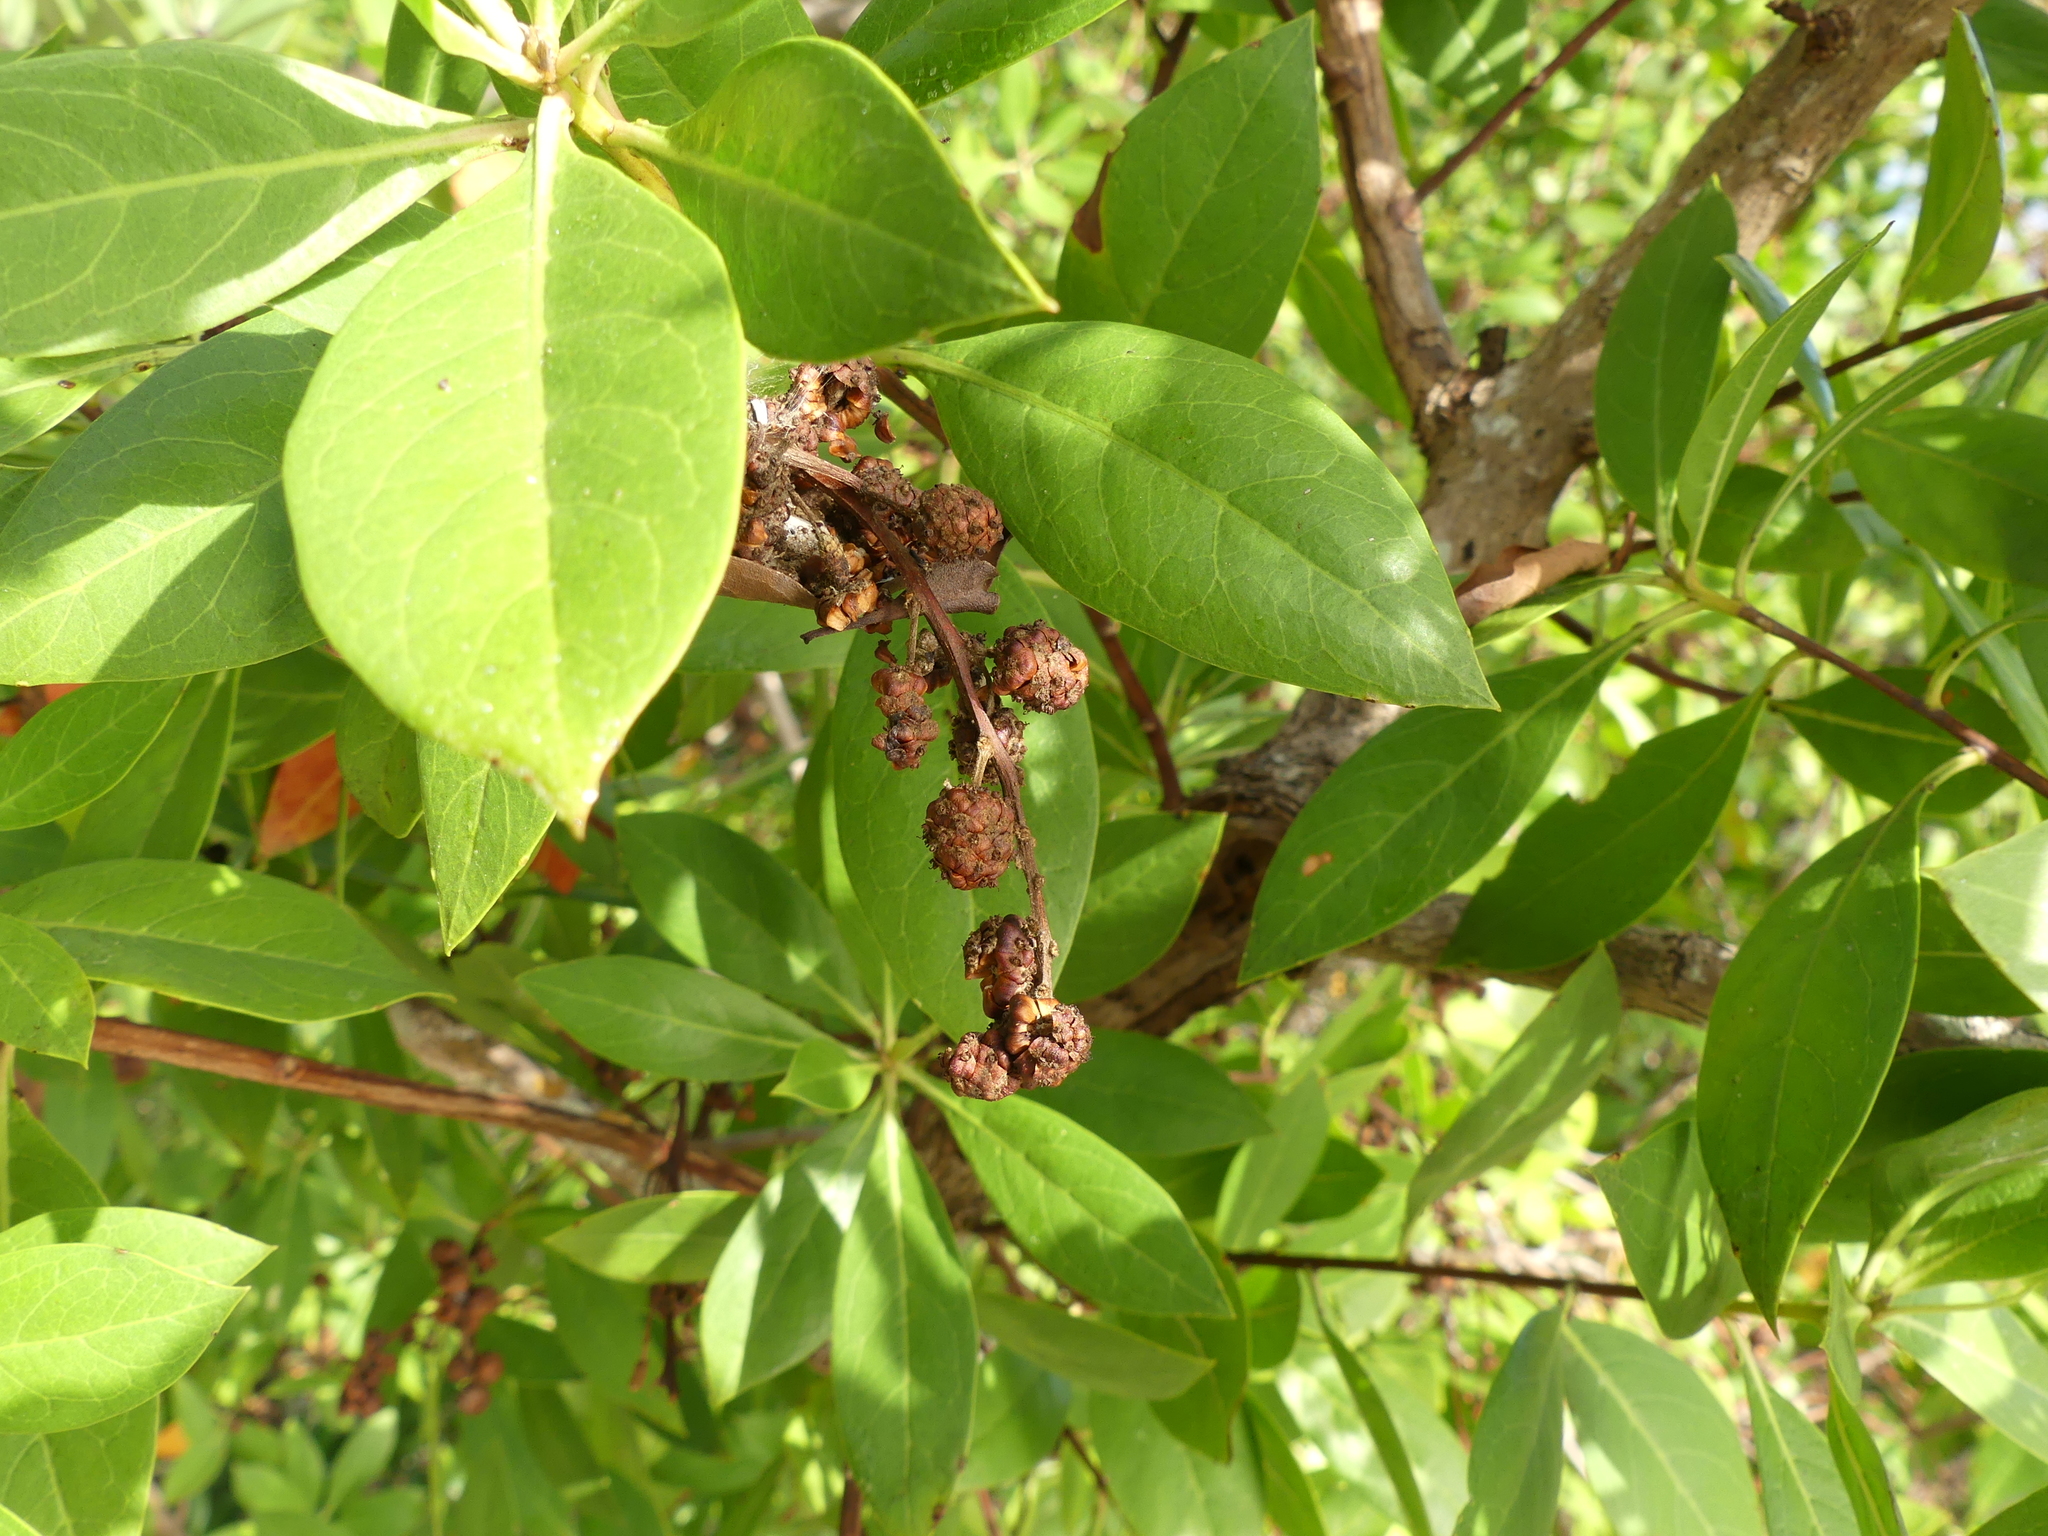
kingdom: Plantae
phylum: Tracheophyta
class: Magnoliopsida
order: Myrtales
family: Combretaceae
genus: Conocarpus
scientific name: Conocarpus erectus
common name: Button mangrove
